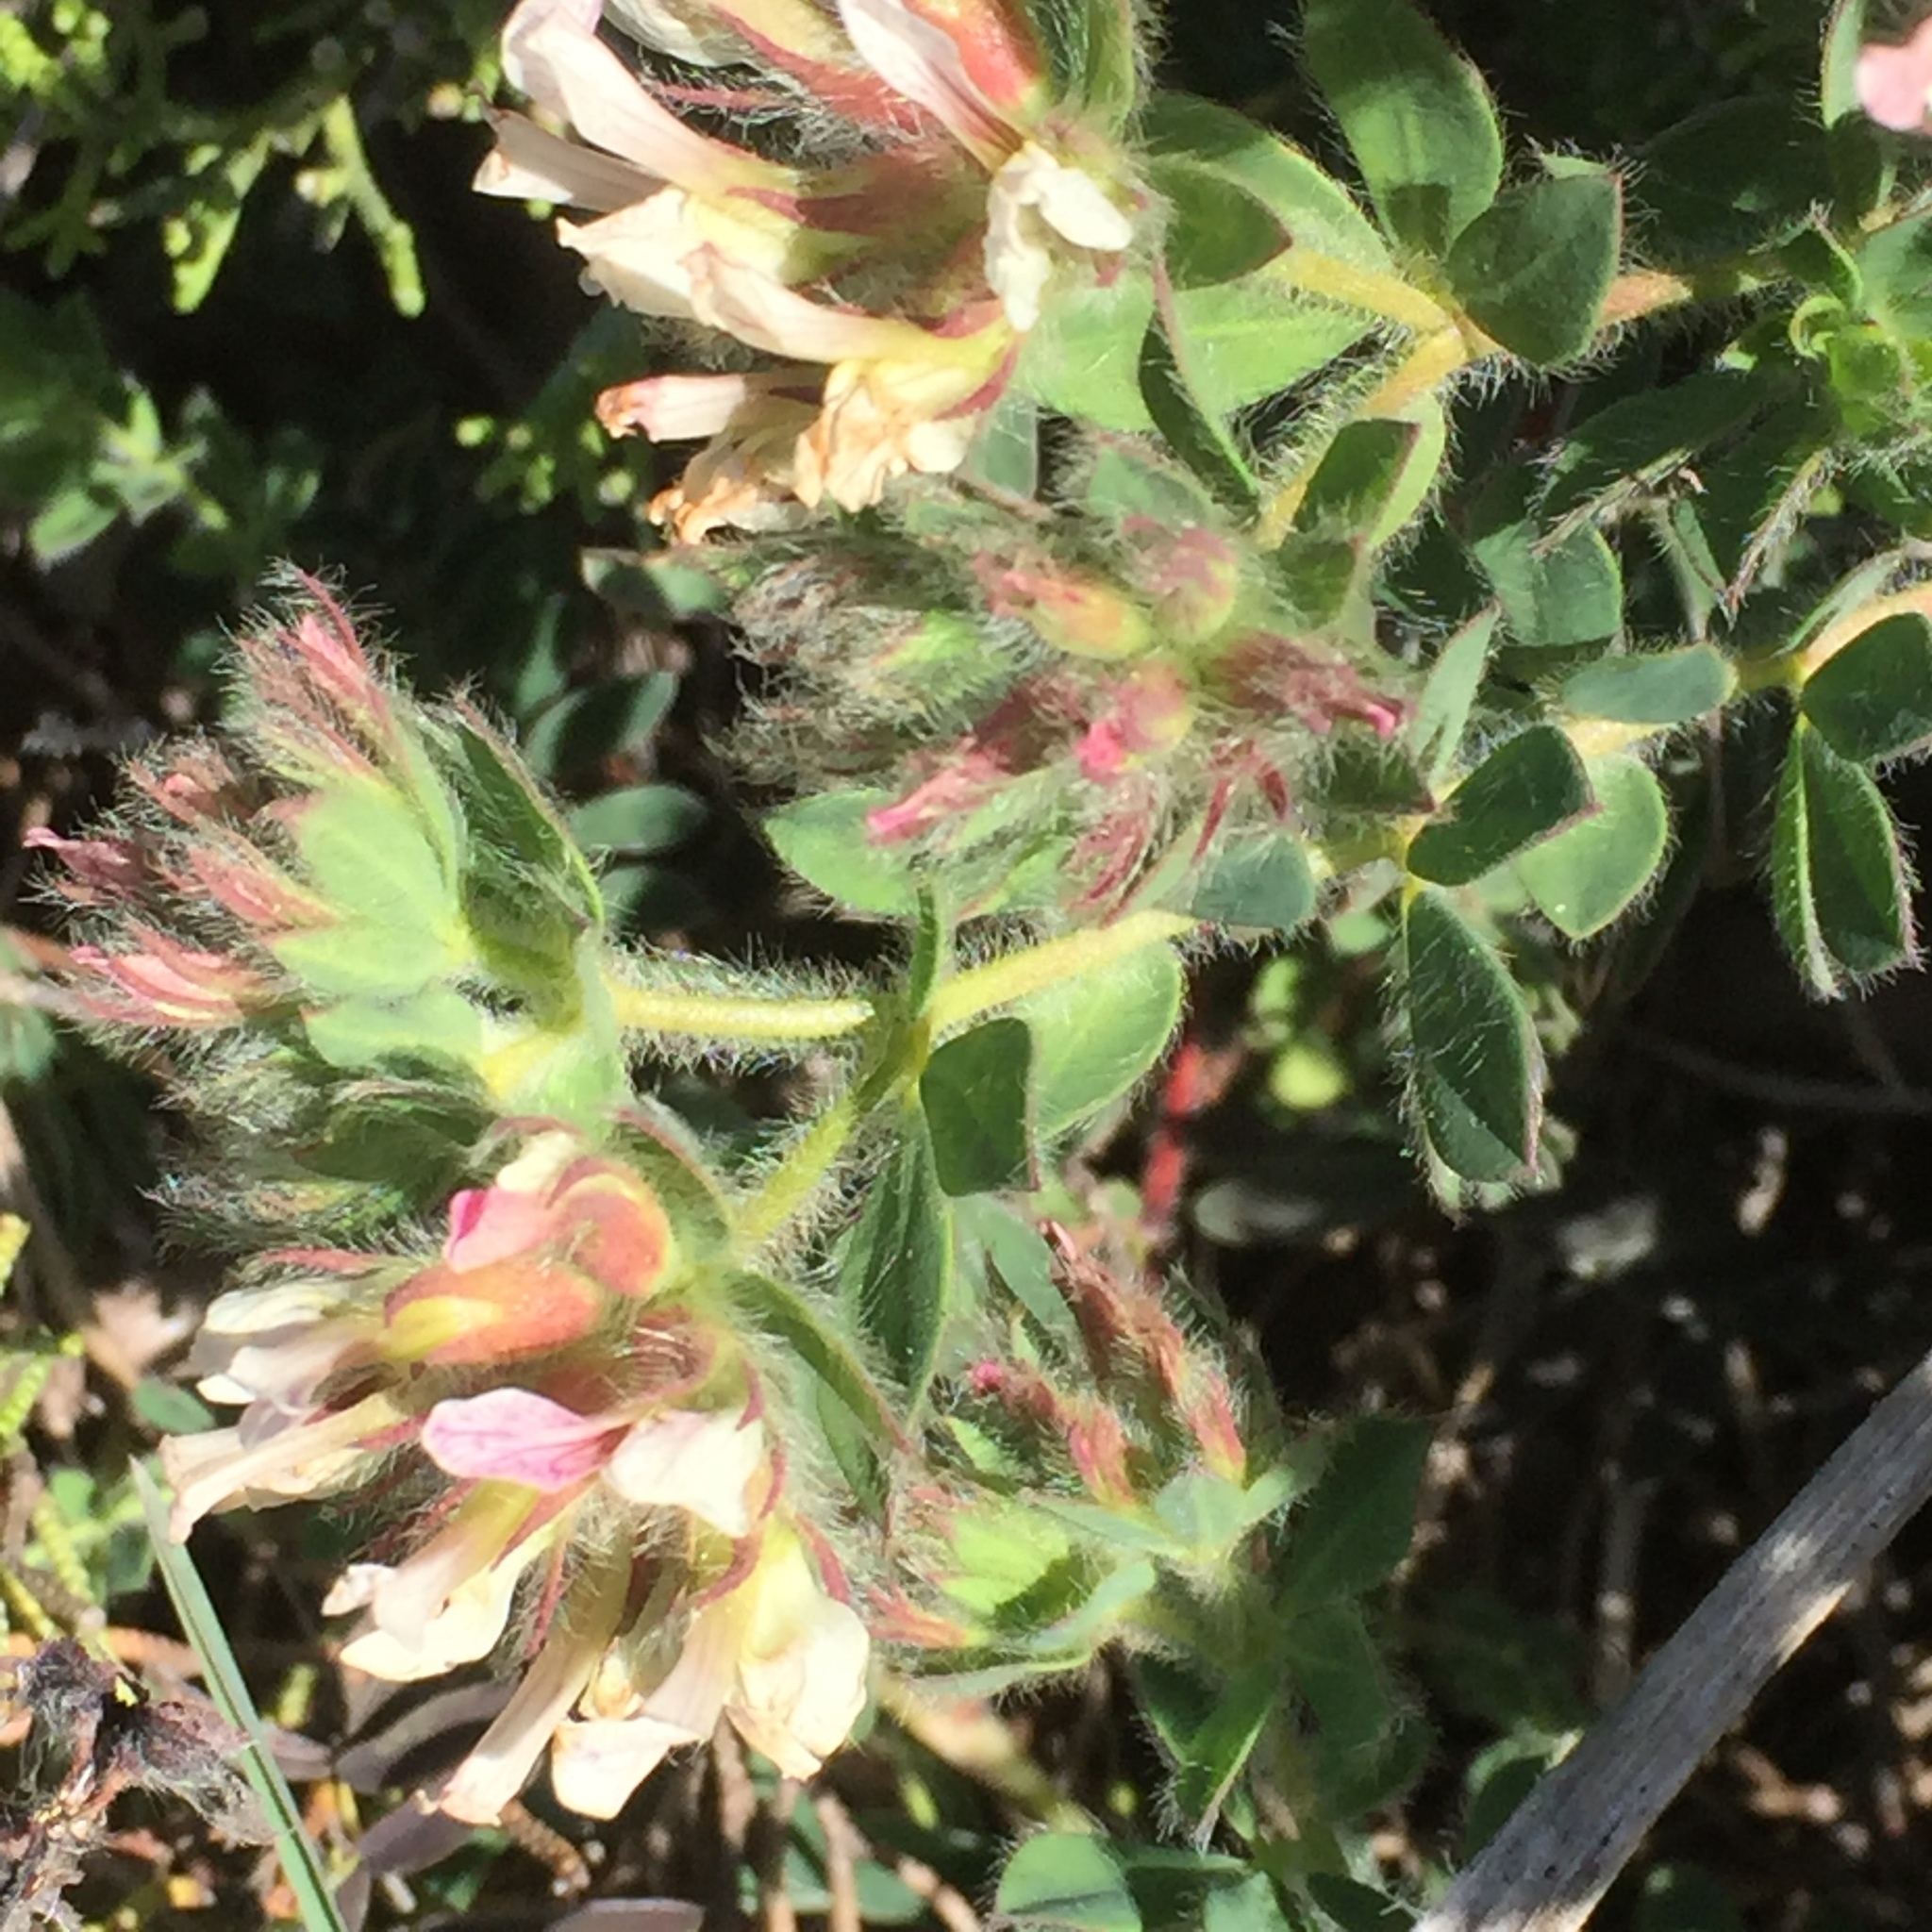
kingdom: Plantae
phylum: Tracheophyta
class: Magnoliopsida
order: Fabales
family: Fabaceae
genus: Lotus
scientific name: Lotus hirsutus
